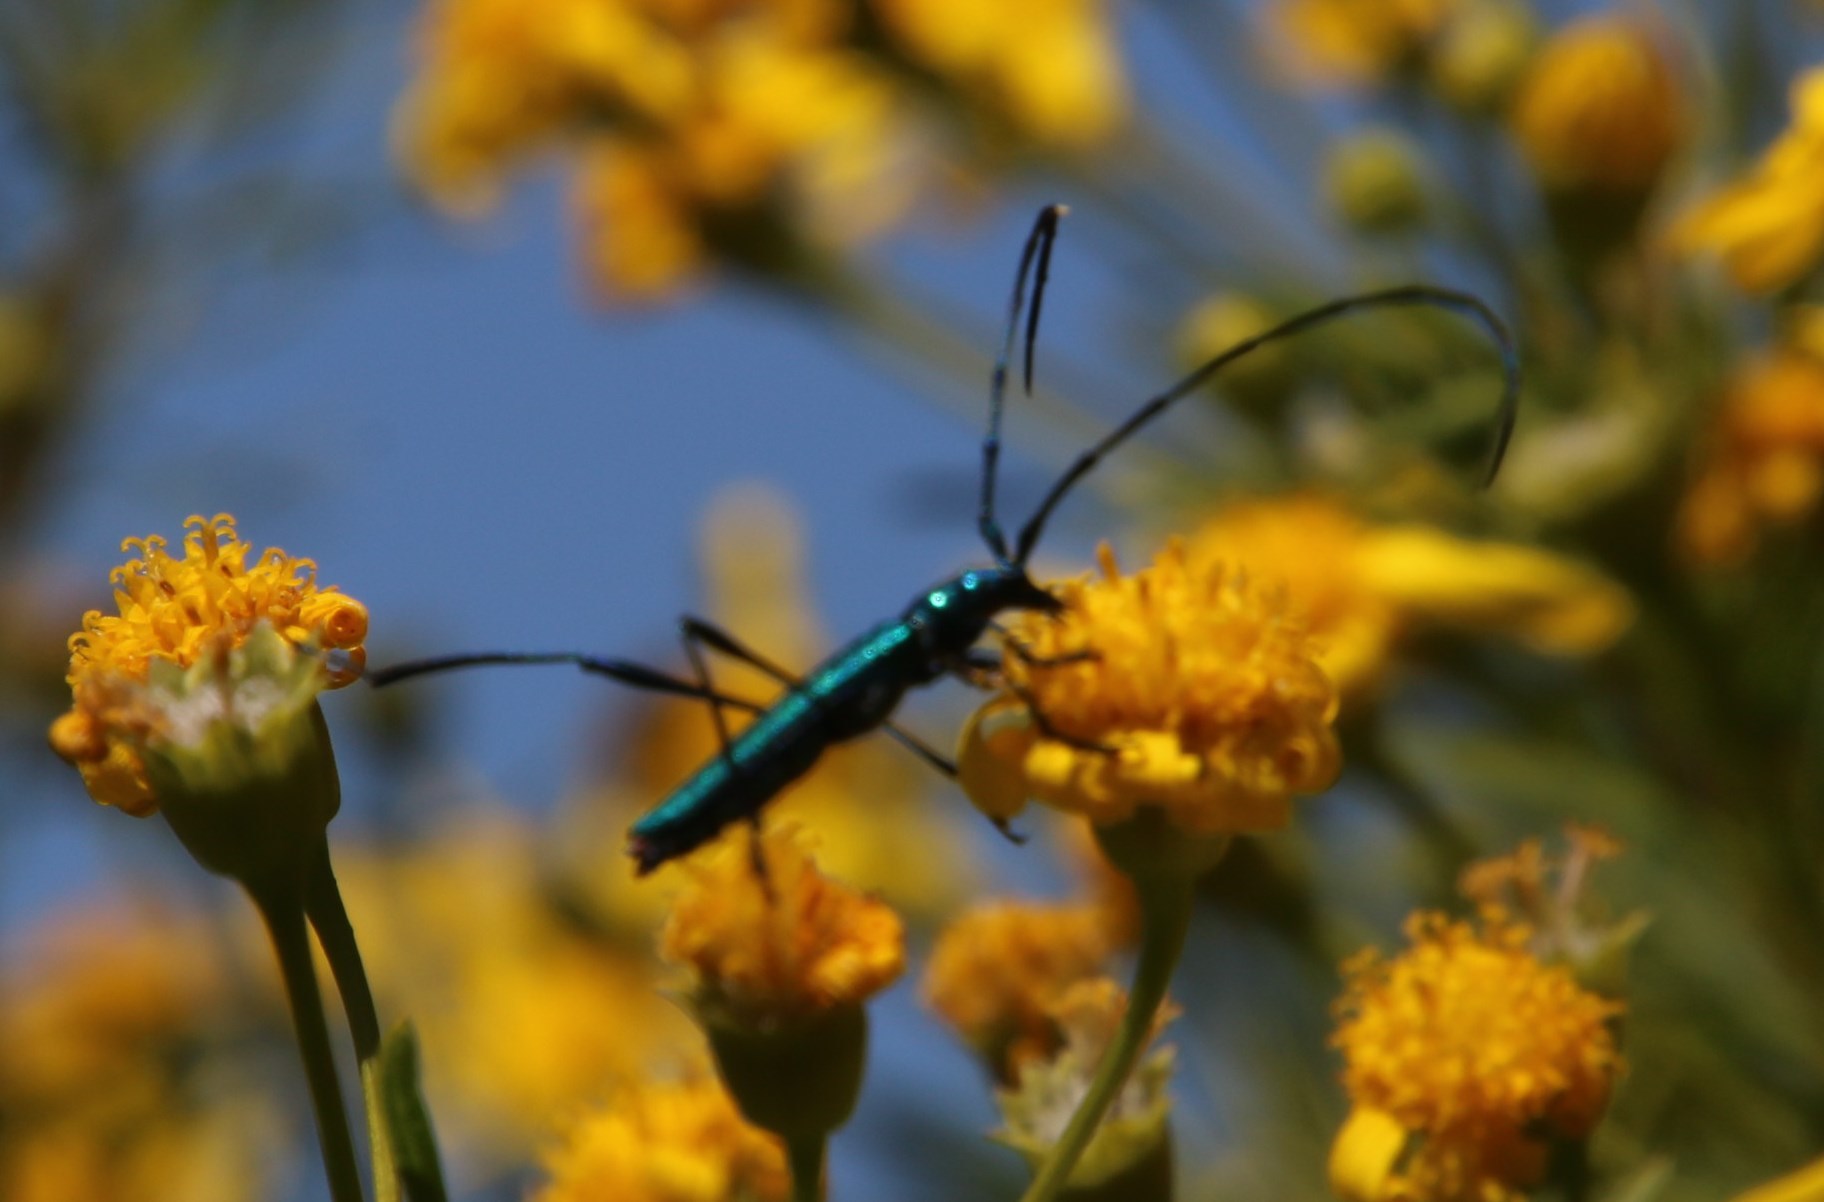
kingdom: Animalia
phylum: Arthropoda
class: Insecta
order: Coleoptera
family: Cerambycidae
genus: Promeces
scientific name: Promeces longipes
